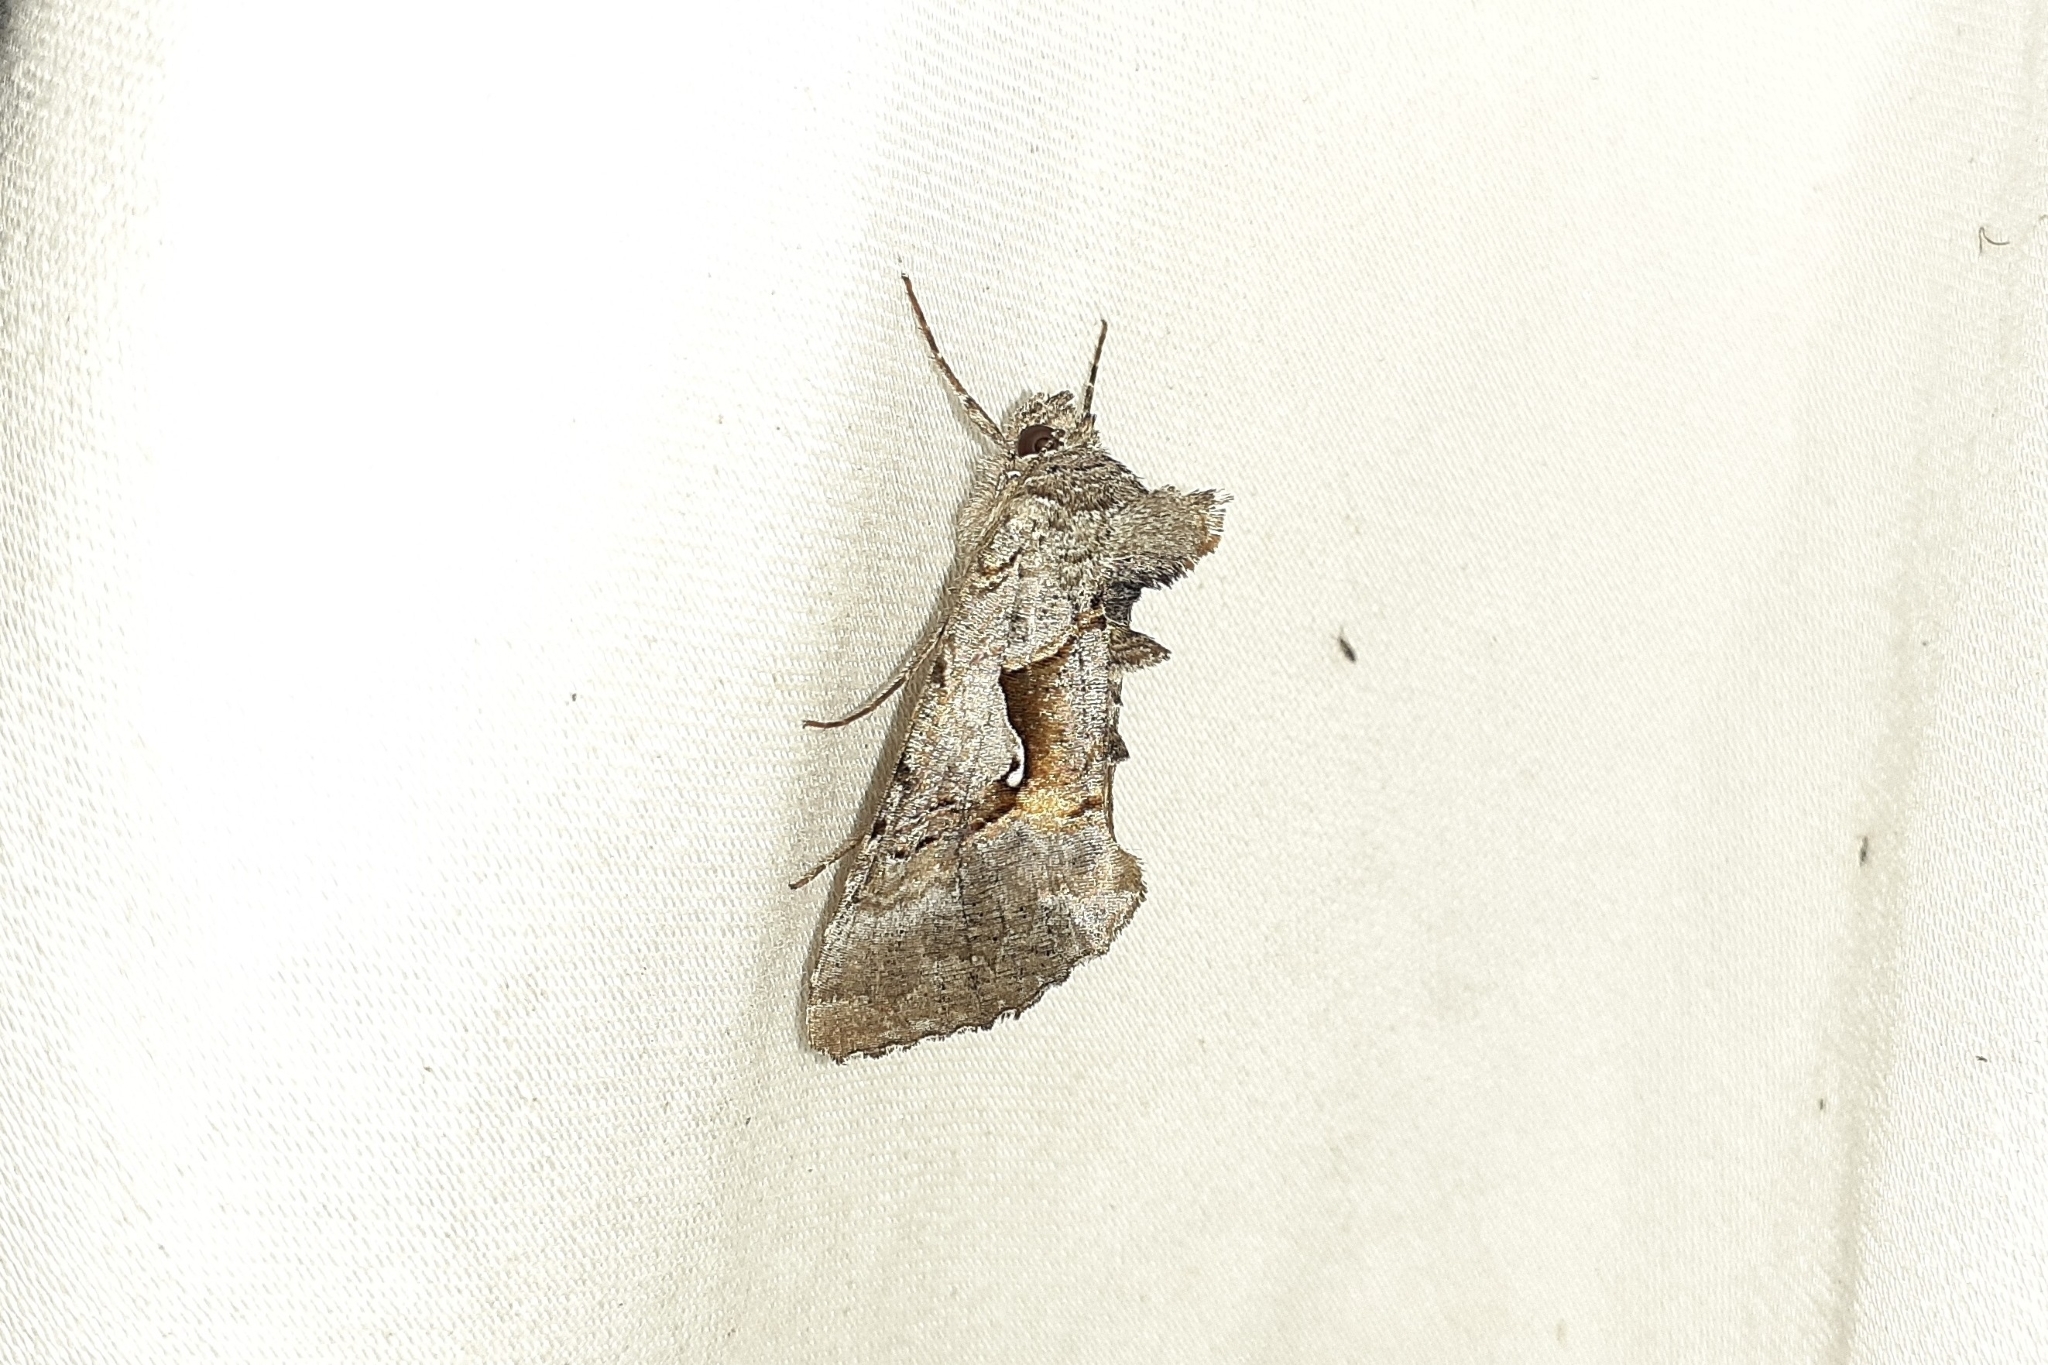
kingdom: Animalia
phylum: Arthropoda
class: Insecta
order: Lepidoptera
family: Noctuidae
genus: Syngrapha
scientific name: Syngrapha epigaea
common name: Epigaea looper moth
